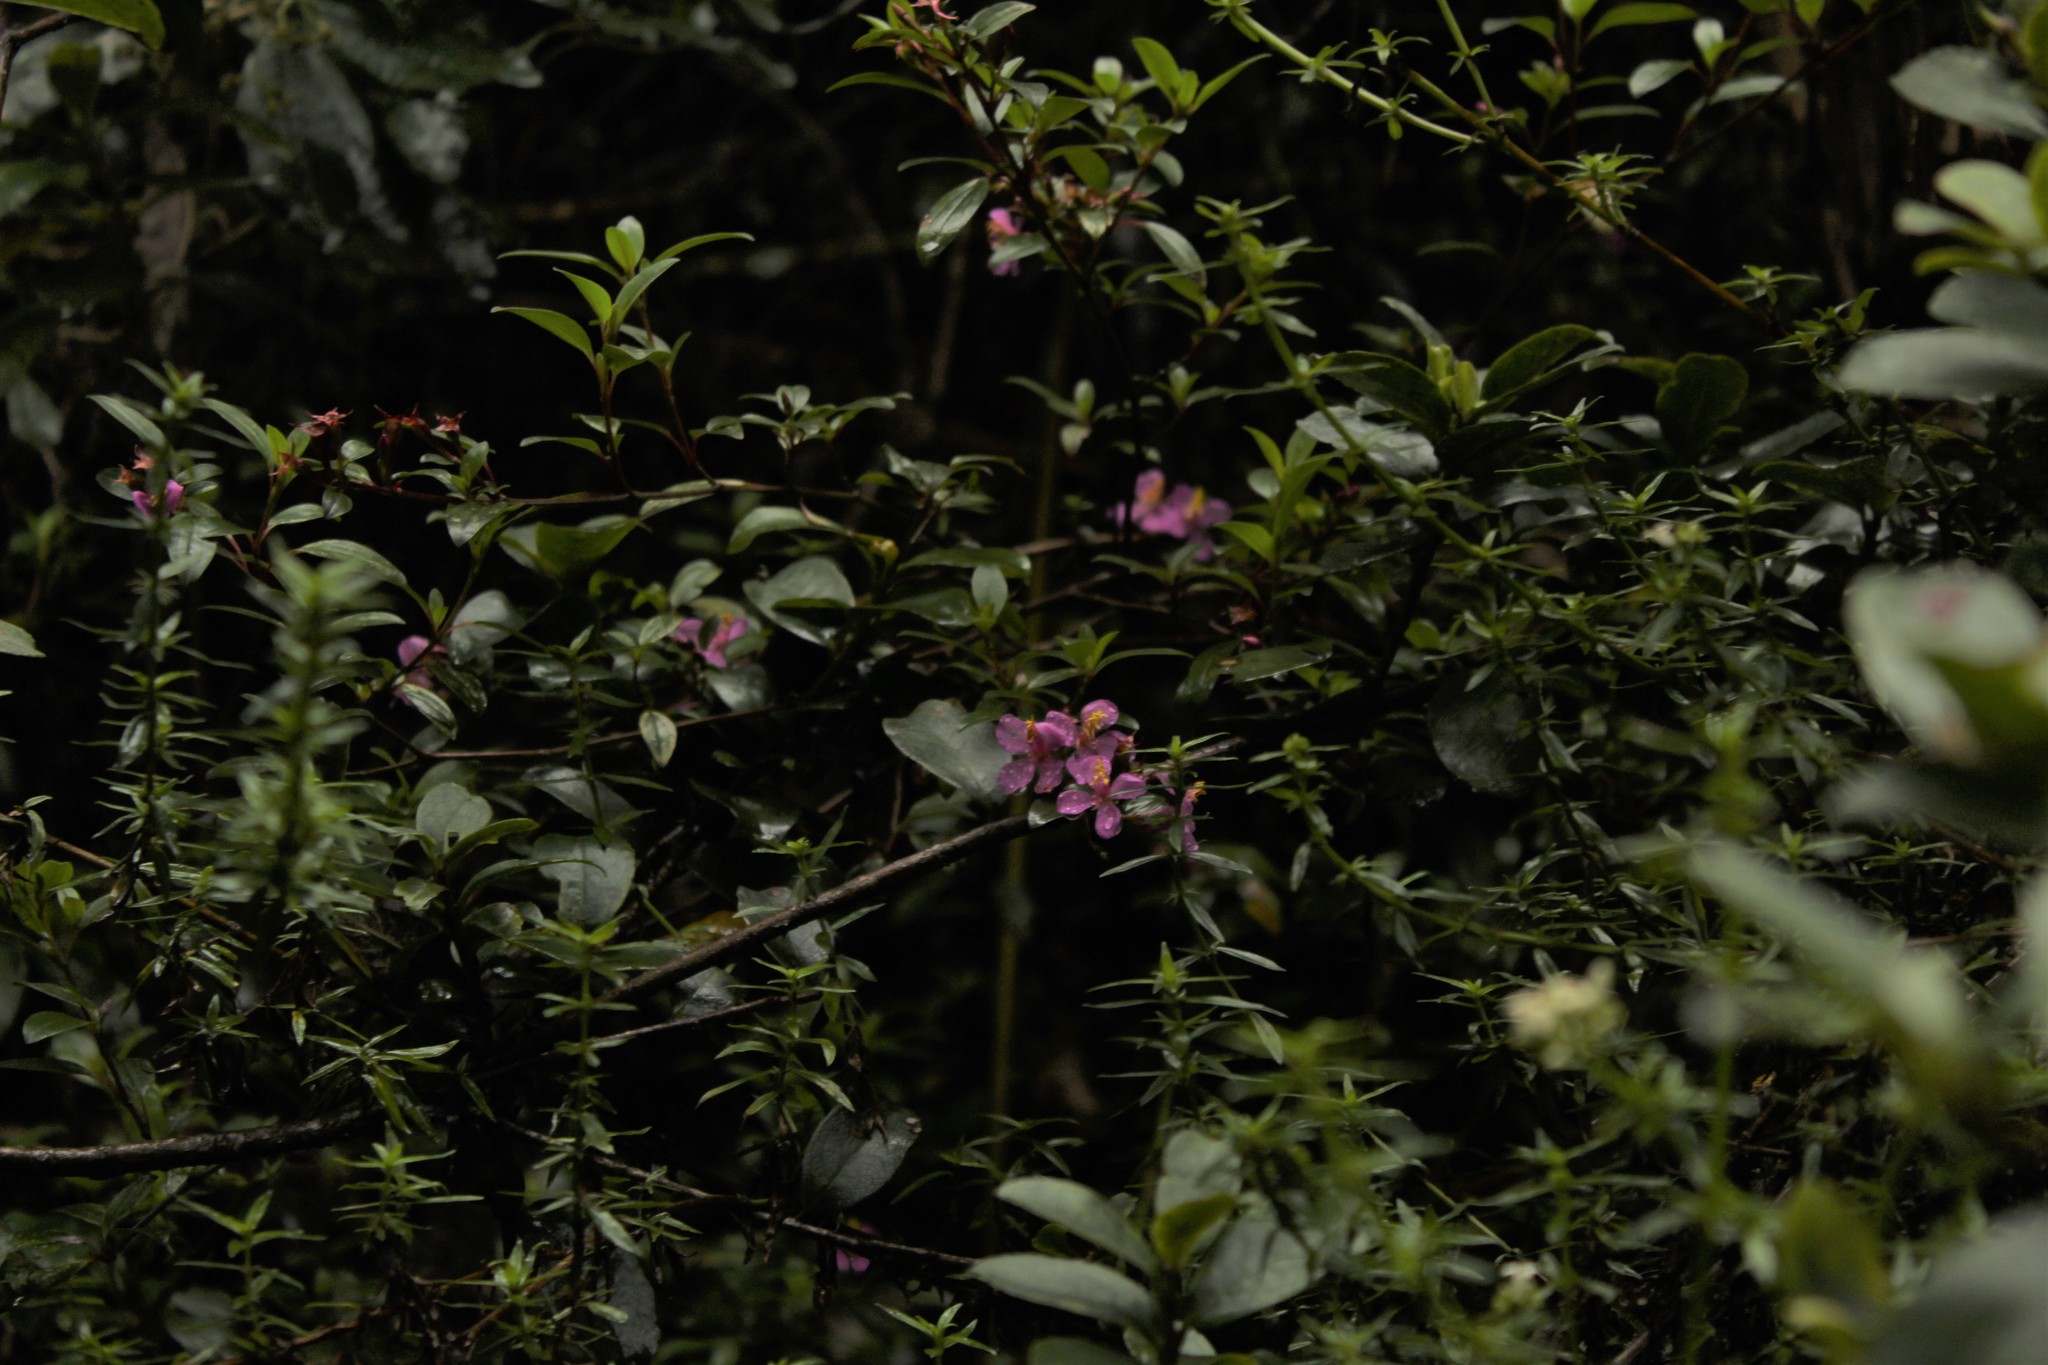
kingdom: Plantae
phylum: Tracheophyta
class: Magnoliopsida
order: Myrtales
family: Melastomataceae
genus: Monochaetum
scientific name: Monochaetum myrtoideum
